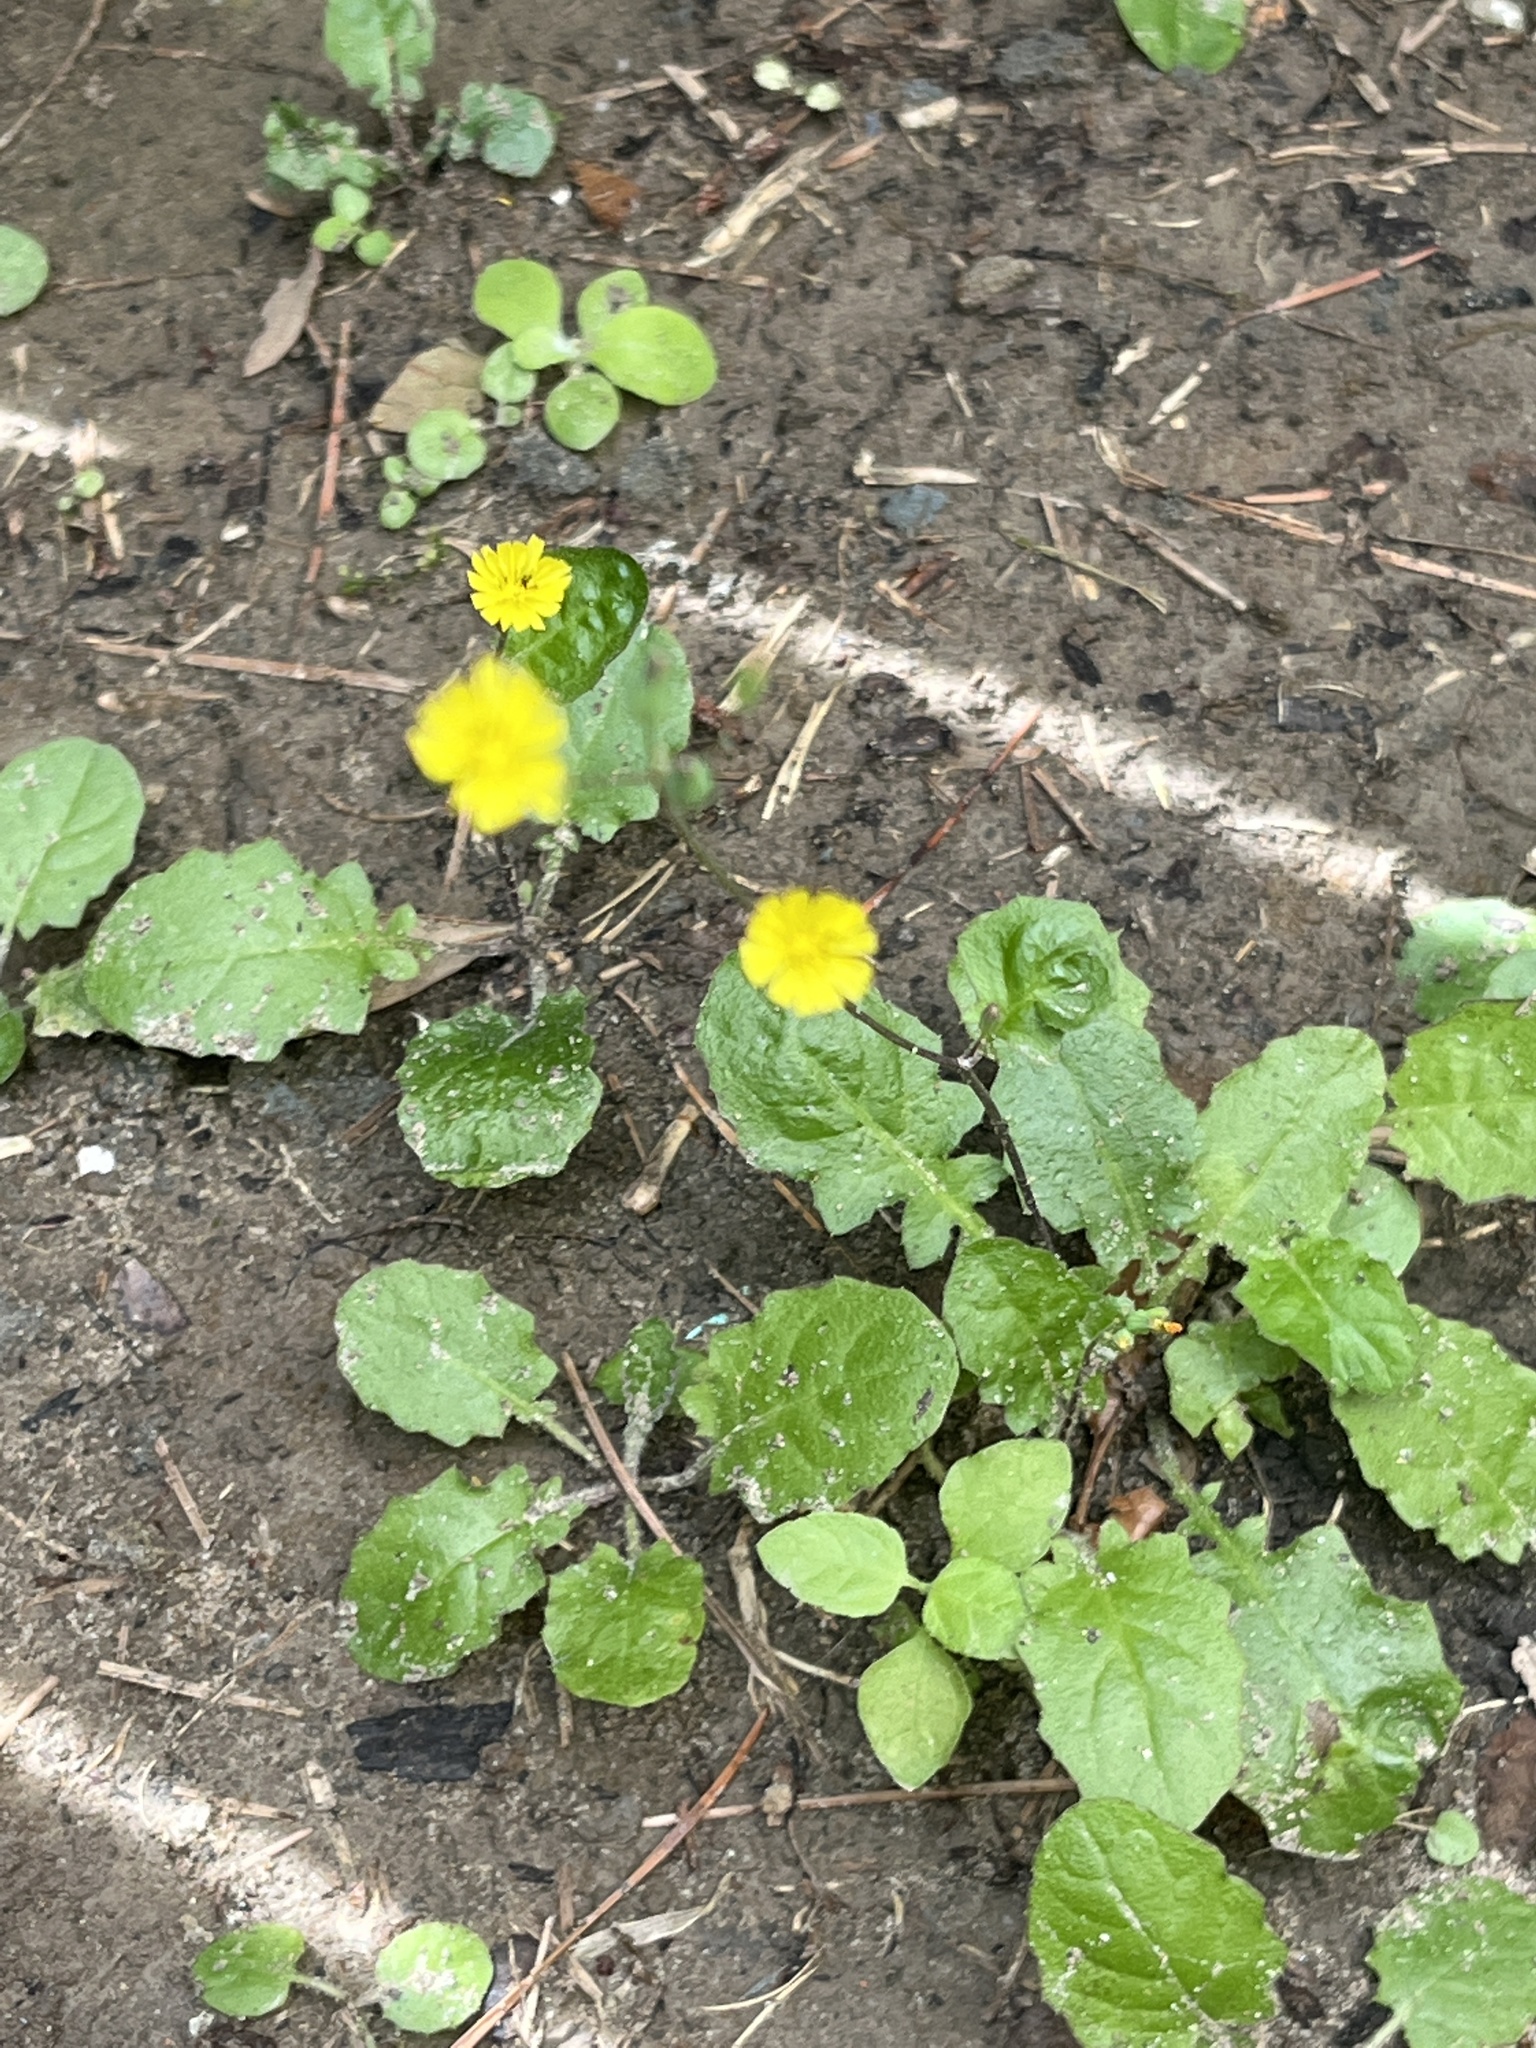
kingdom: Plantae
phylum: Tracheophyta
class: Magnoliopsida
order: Asterales
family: Asteraceae
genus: Youngia
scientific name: Youngia japonica
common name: Oriental false hawksbeard
